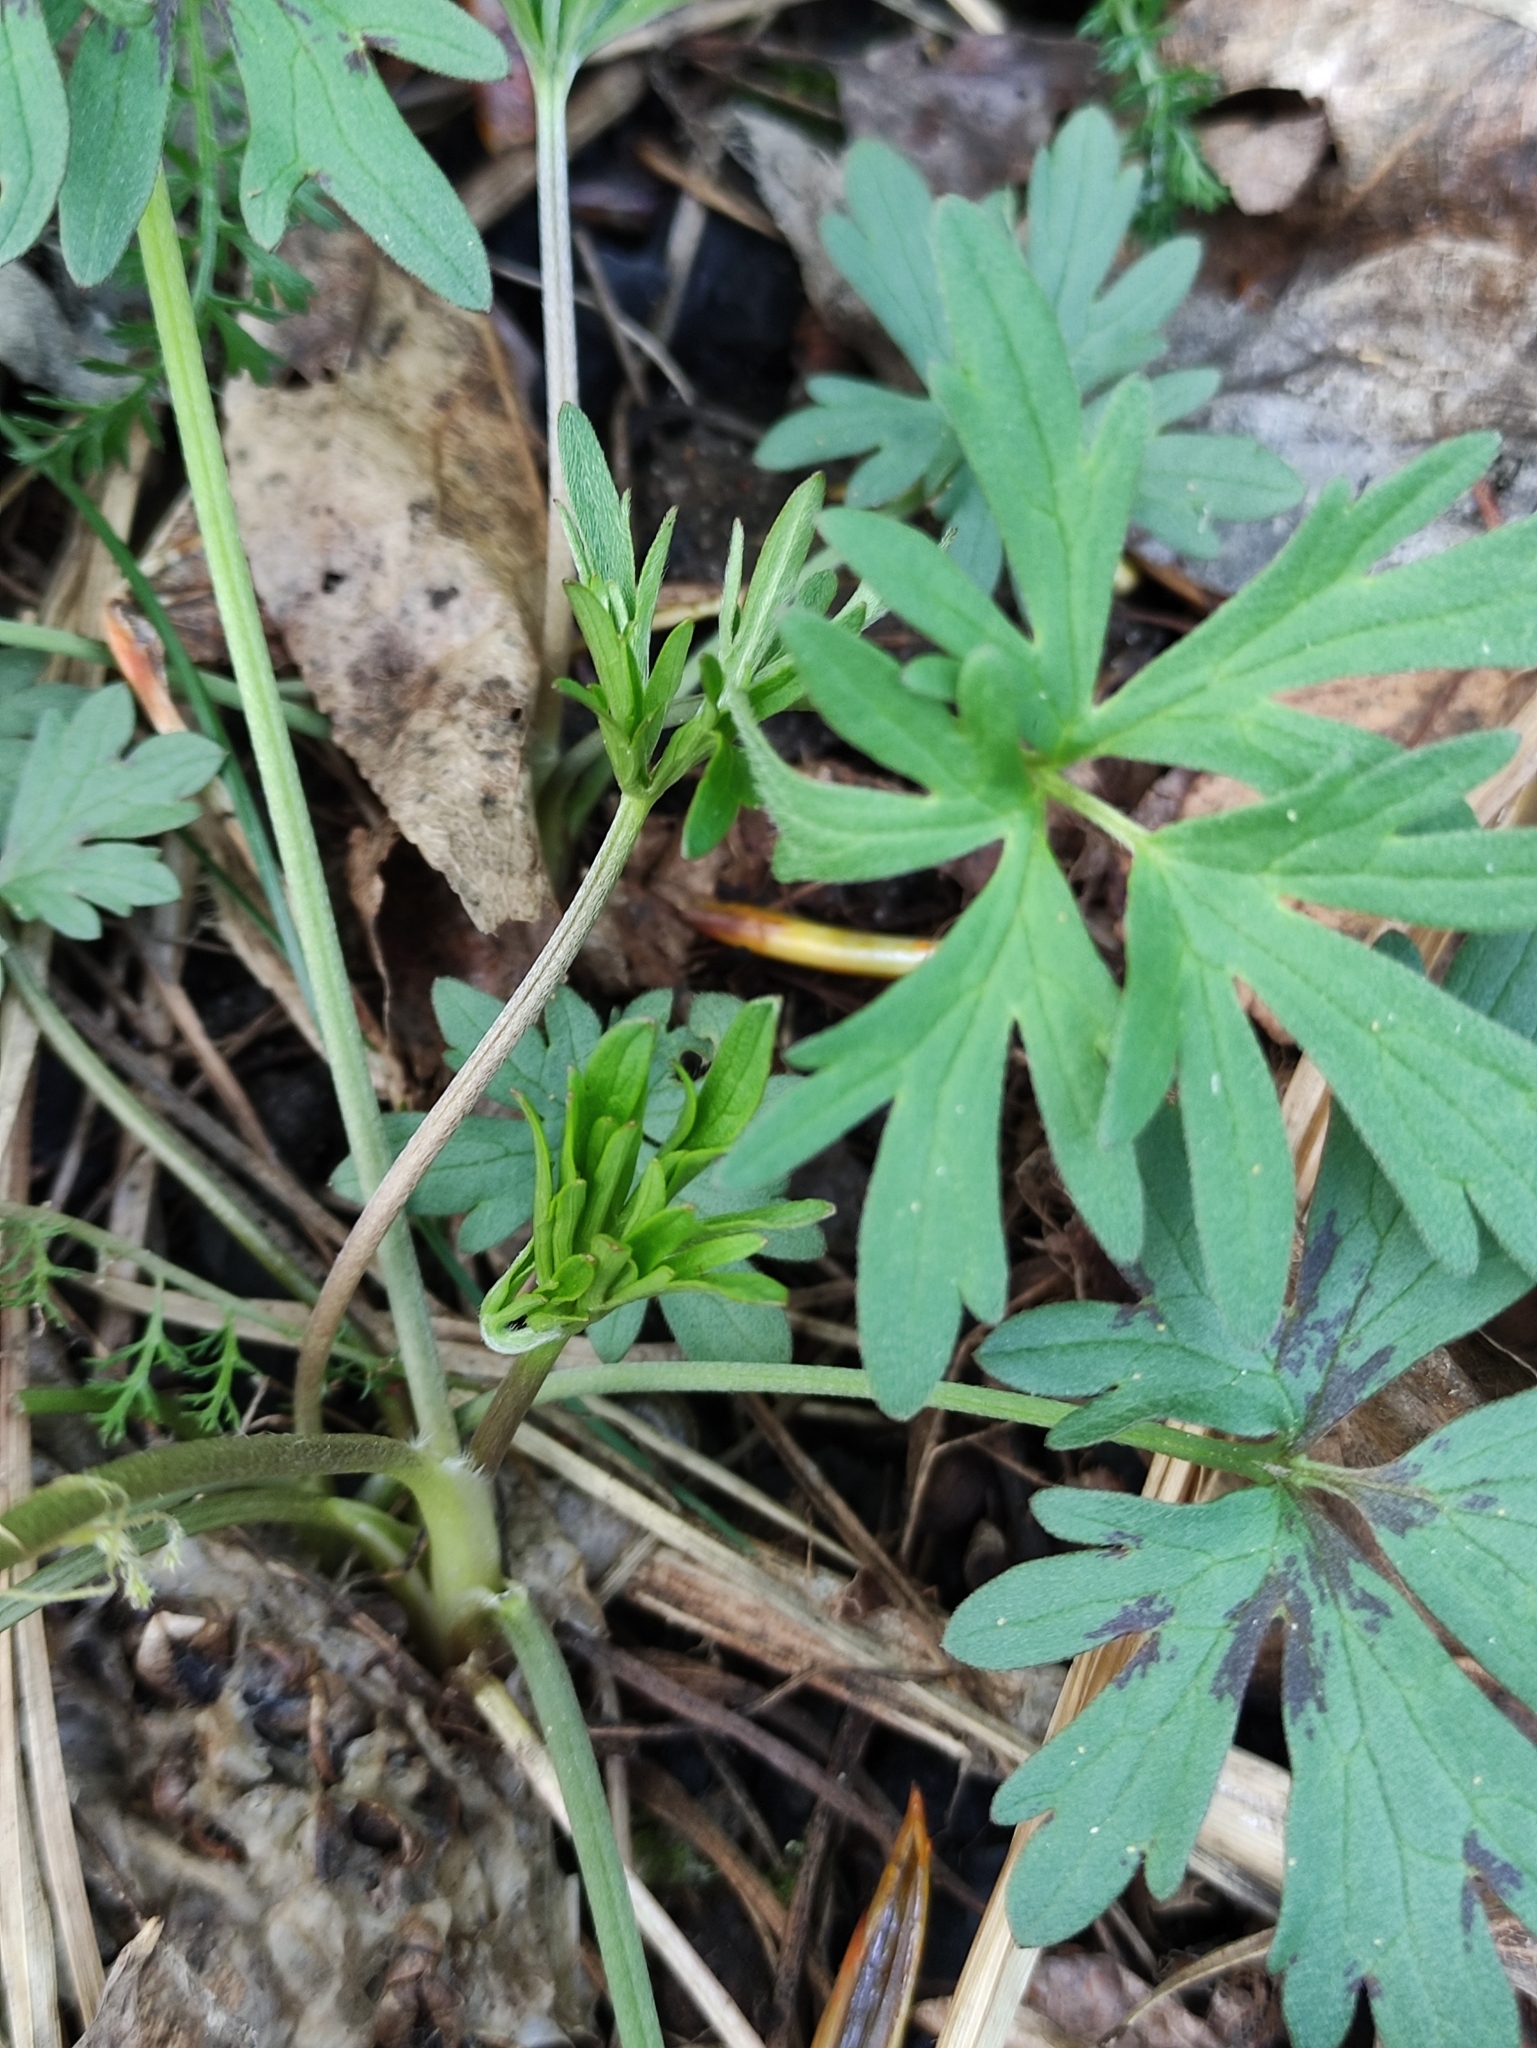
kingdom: Plantae
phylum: Tracheophyta
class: Magnoliopsida
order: Ranunculales
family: Ranunculaceae
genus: Ranunculus
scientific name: Ranunculus acris
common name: Meadow buttercup
